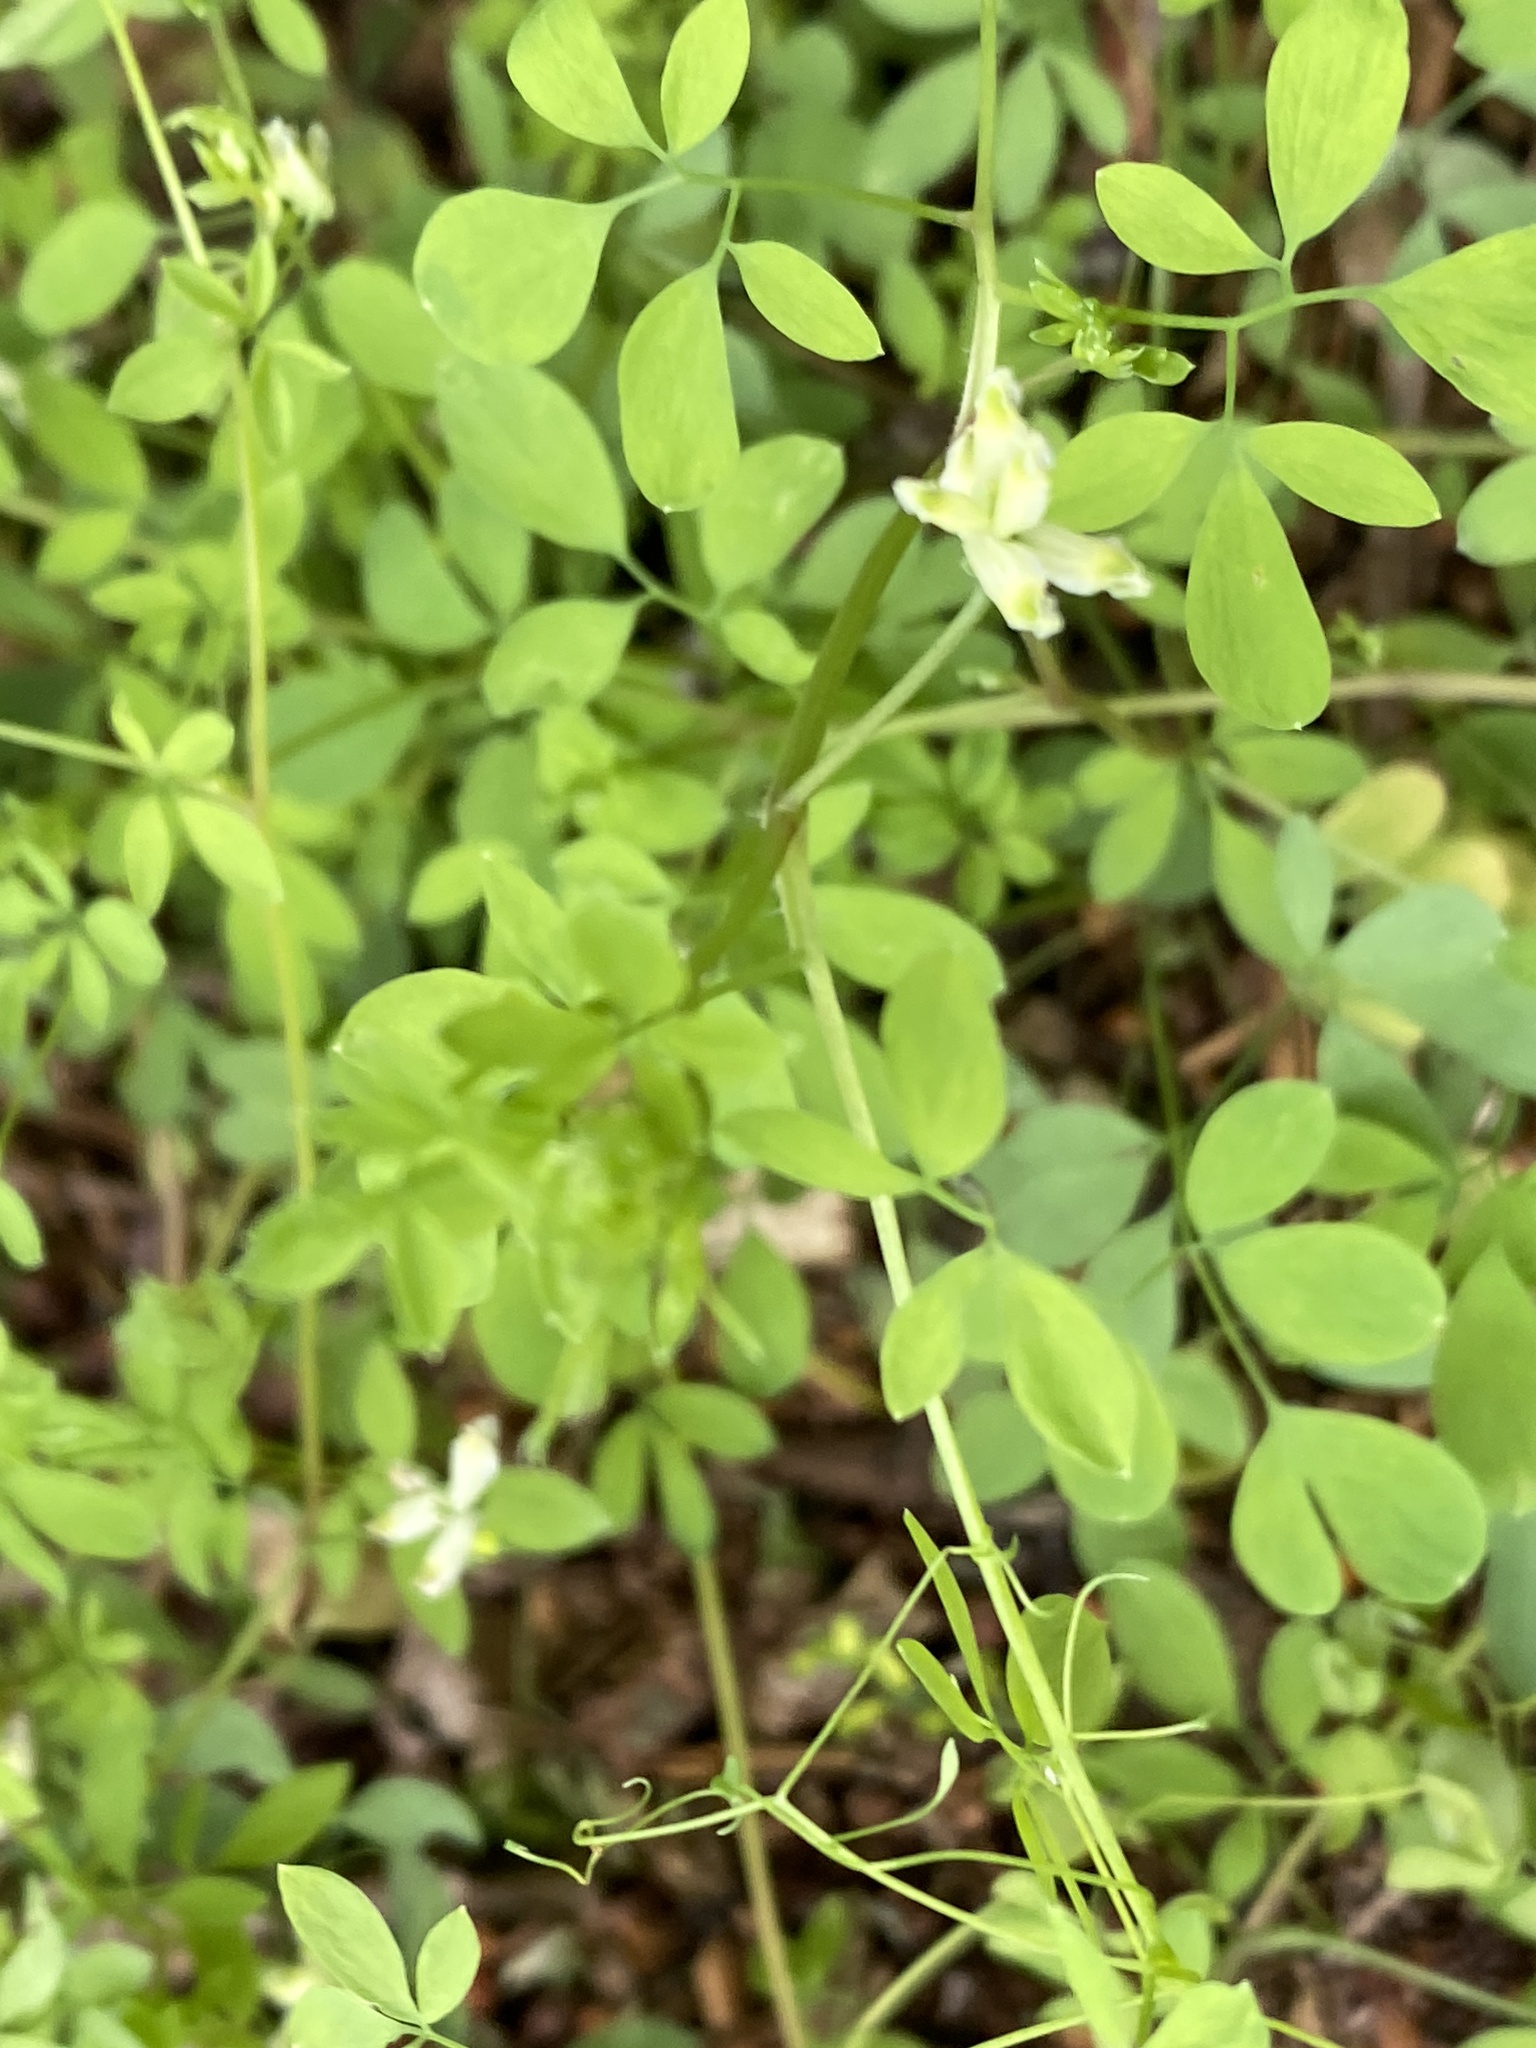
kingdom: Plantae
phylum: Tracheophyta
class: Magnoliopsida
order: Ranunculales
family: Papaveraceae
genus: Ceratocapnos
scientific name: Ceratocapnos claviculata
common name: Climbing corydalis
